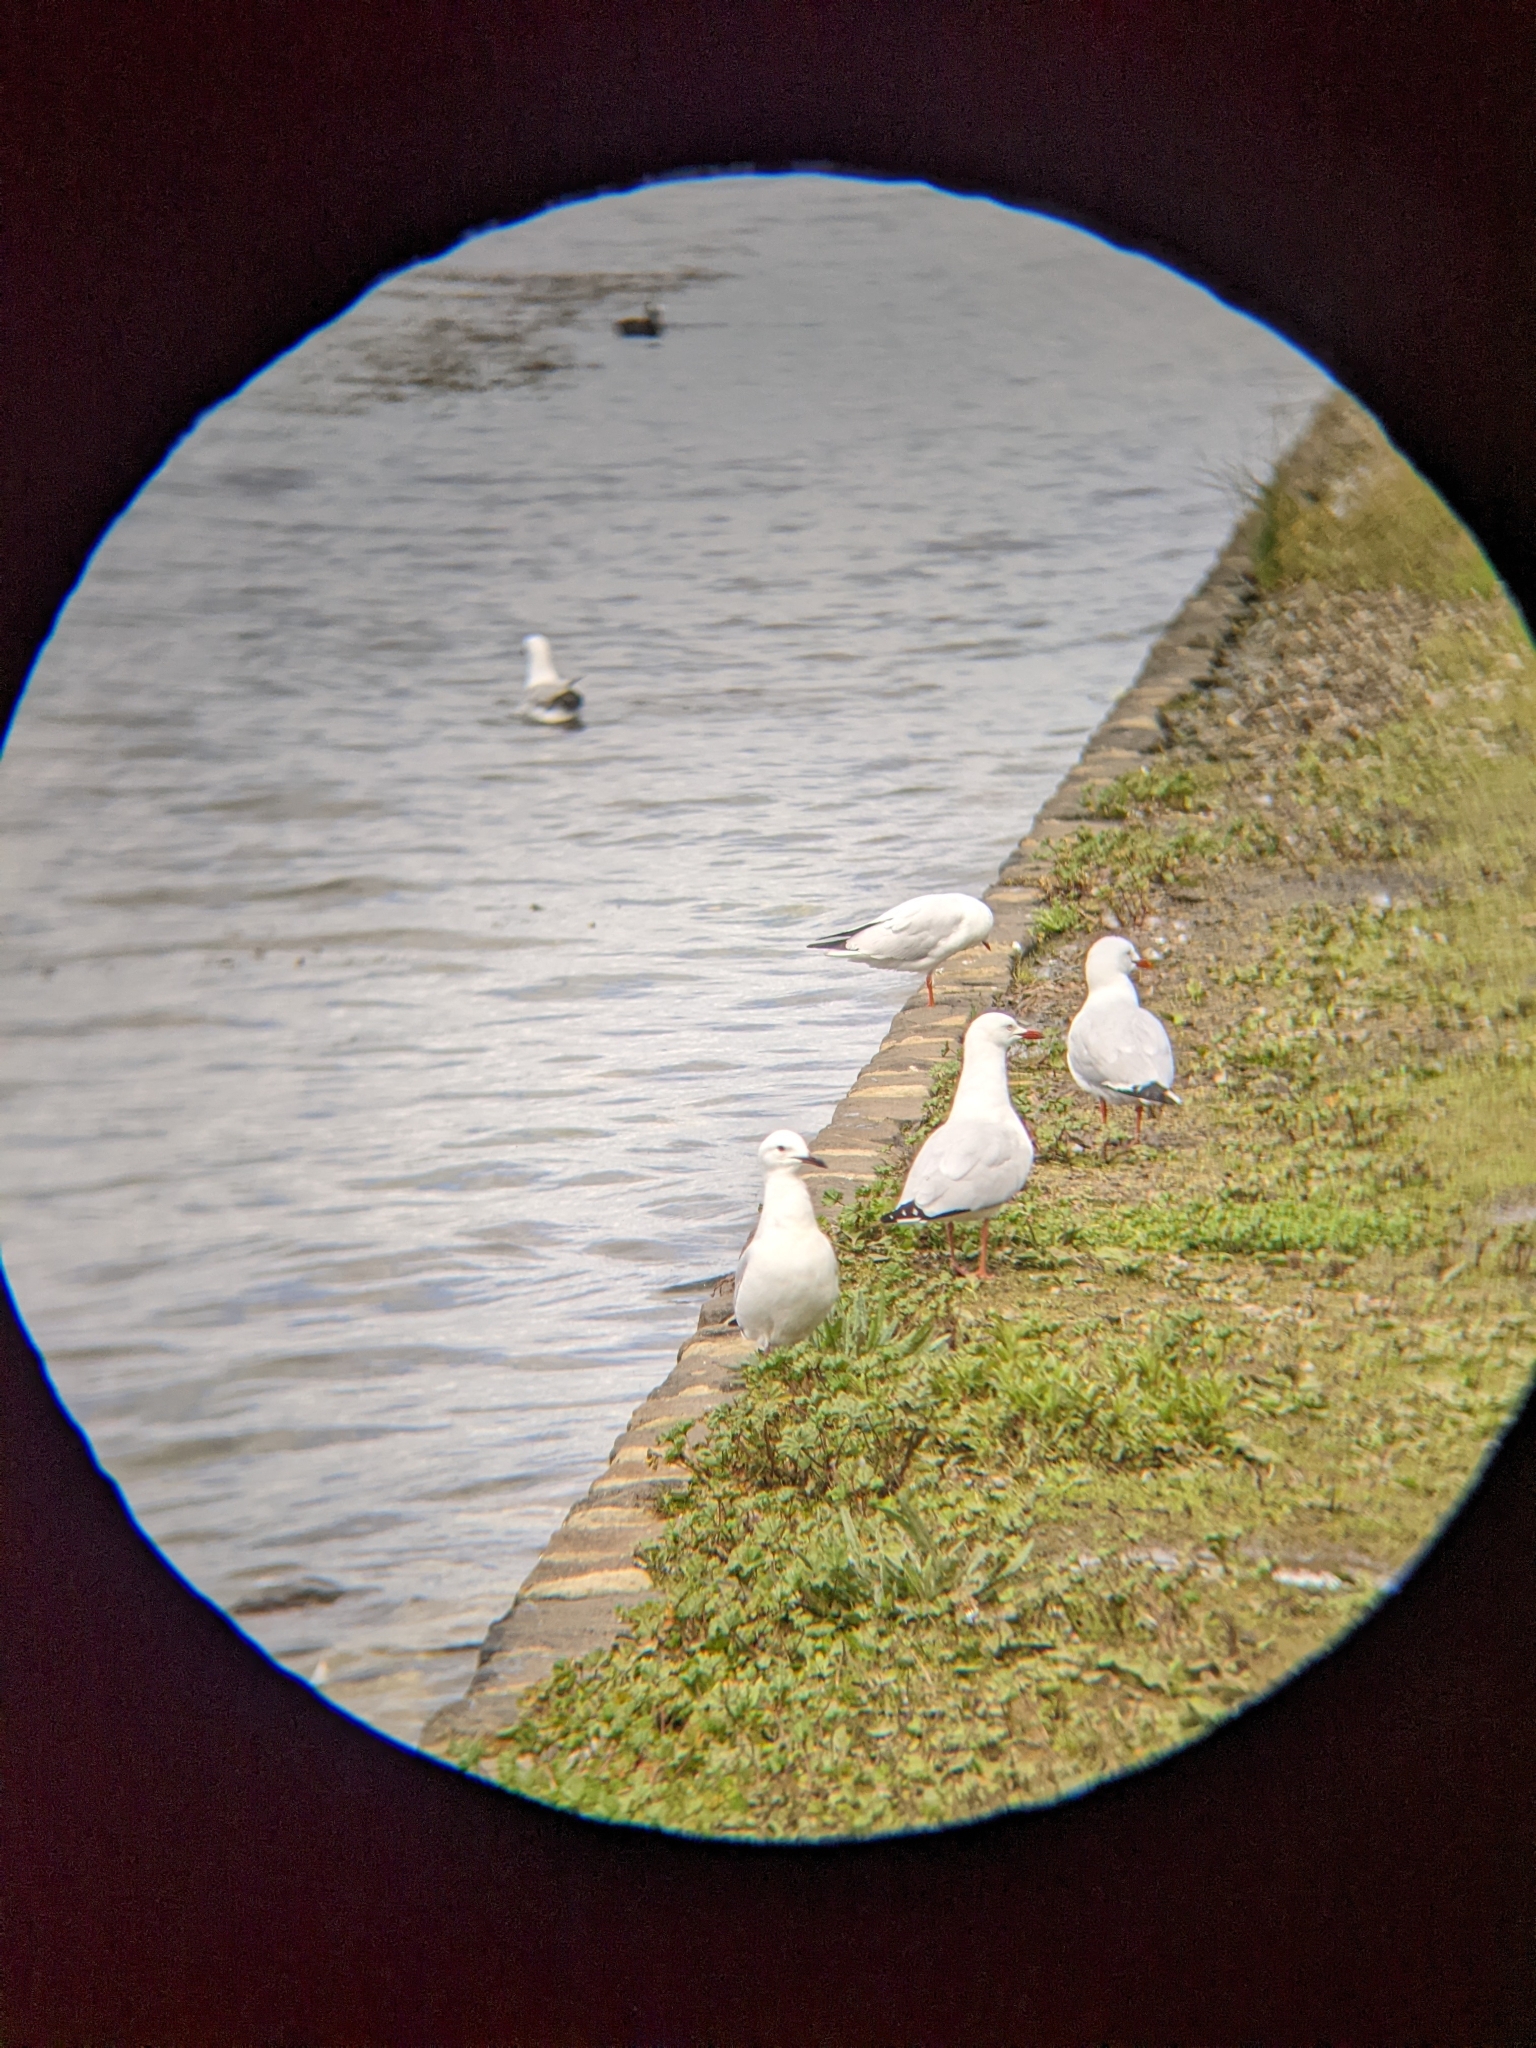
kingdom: Animalia
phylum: Chordata
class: Aves
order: Charadriiformes
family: Laridae
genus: Chroicocephalus
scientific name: Chroicocephalus novaehollandiae
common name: Silver gull
